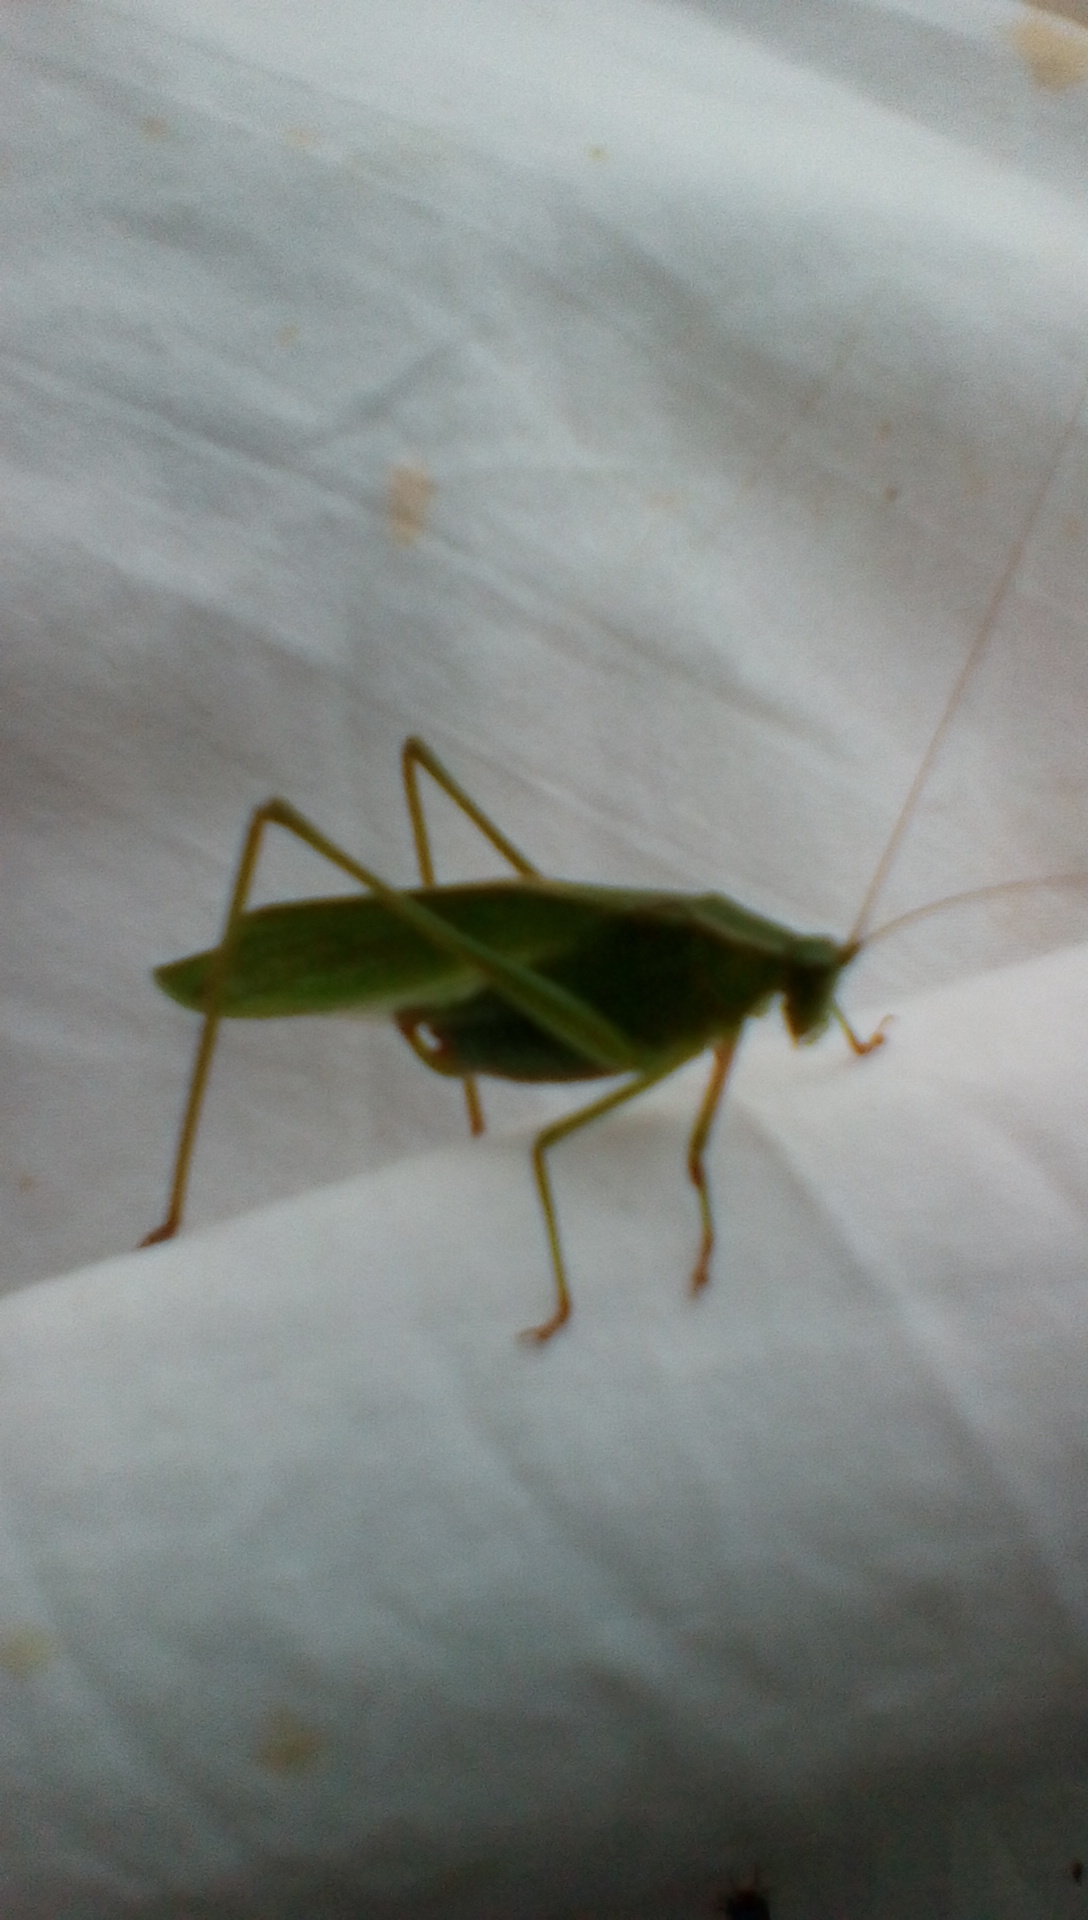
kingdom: Animalia
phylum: Arthropoda
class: Insecta
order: Orthoptera
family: Tettigoniidae
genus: Scudderia
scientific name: Scudderia furcata
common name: Fork-tailed bush katydid
